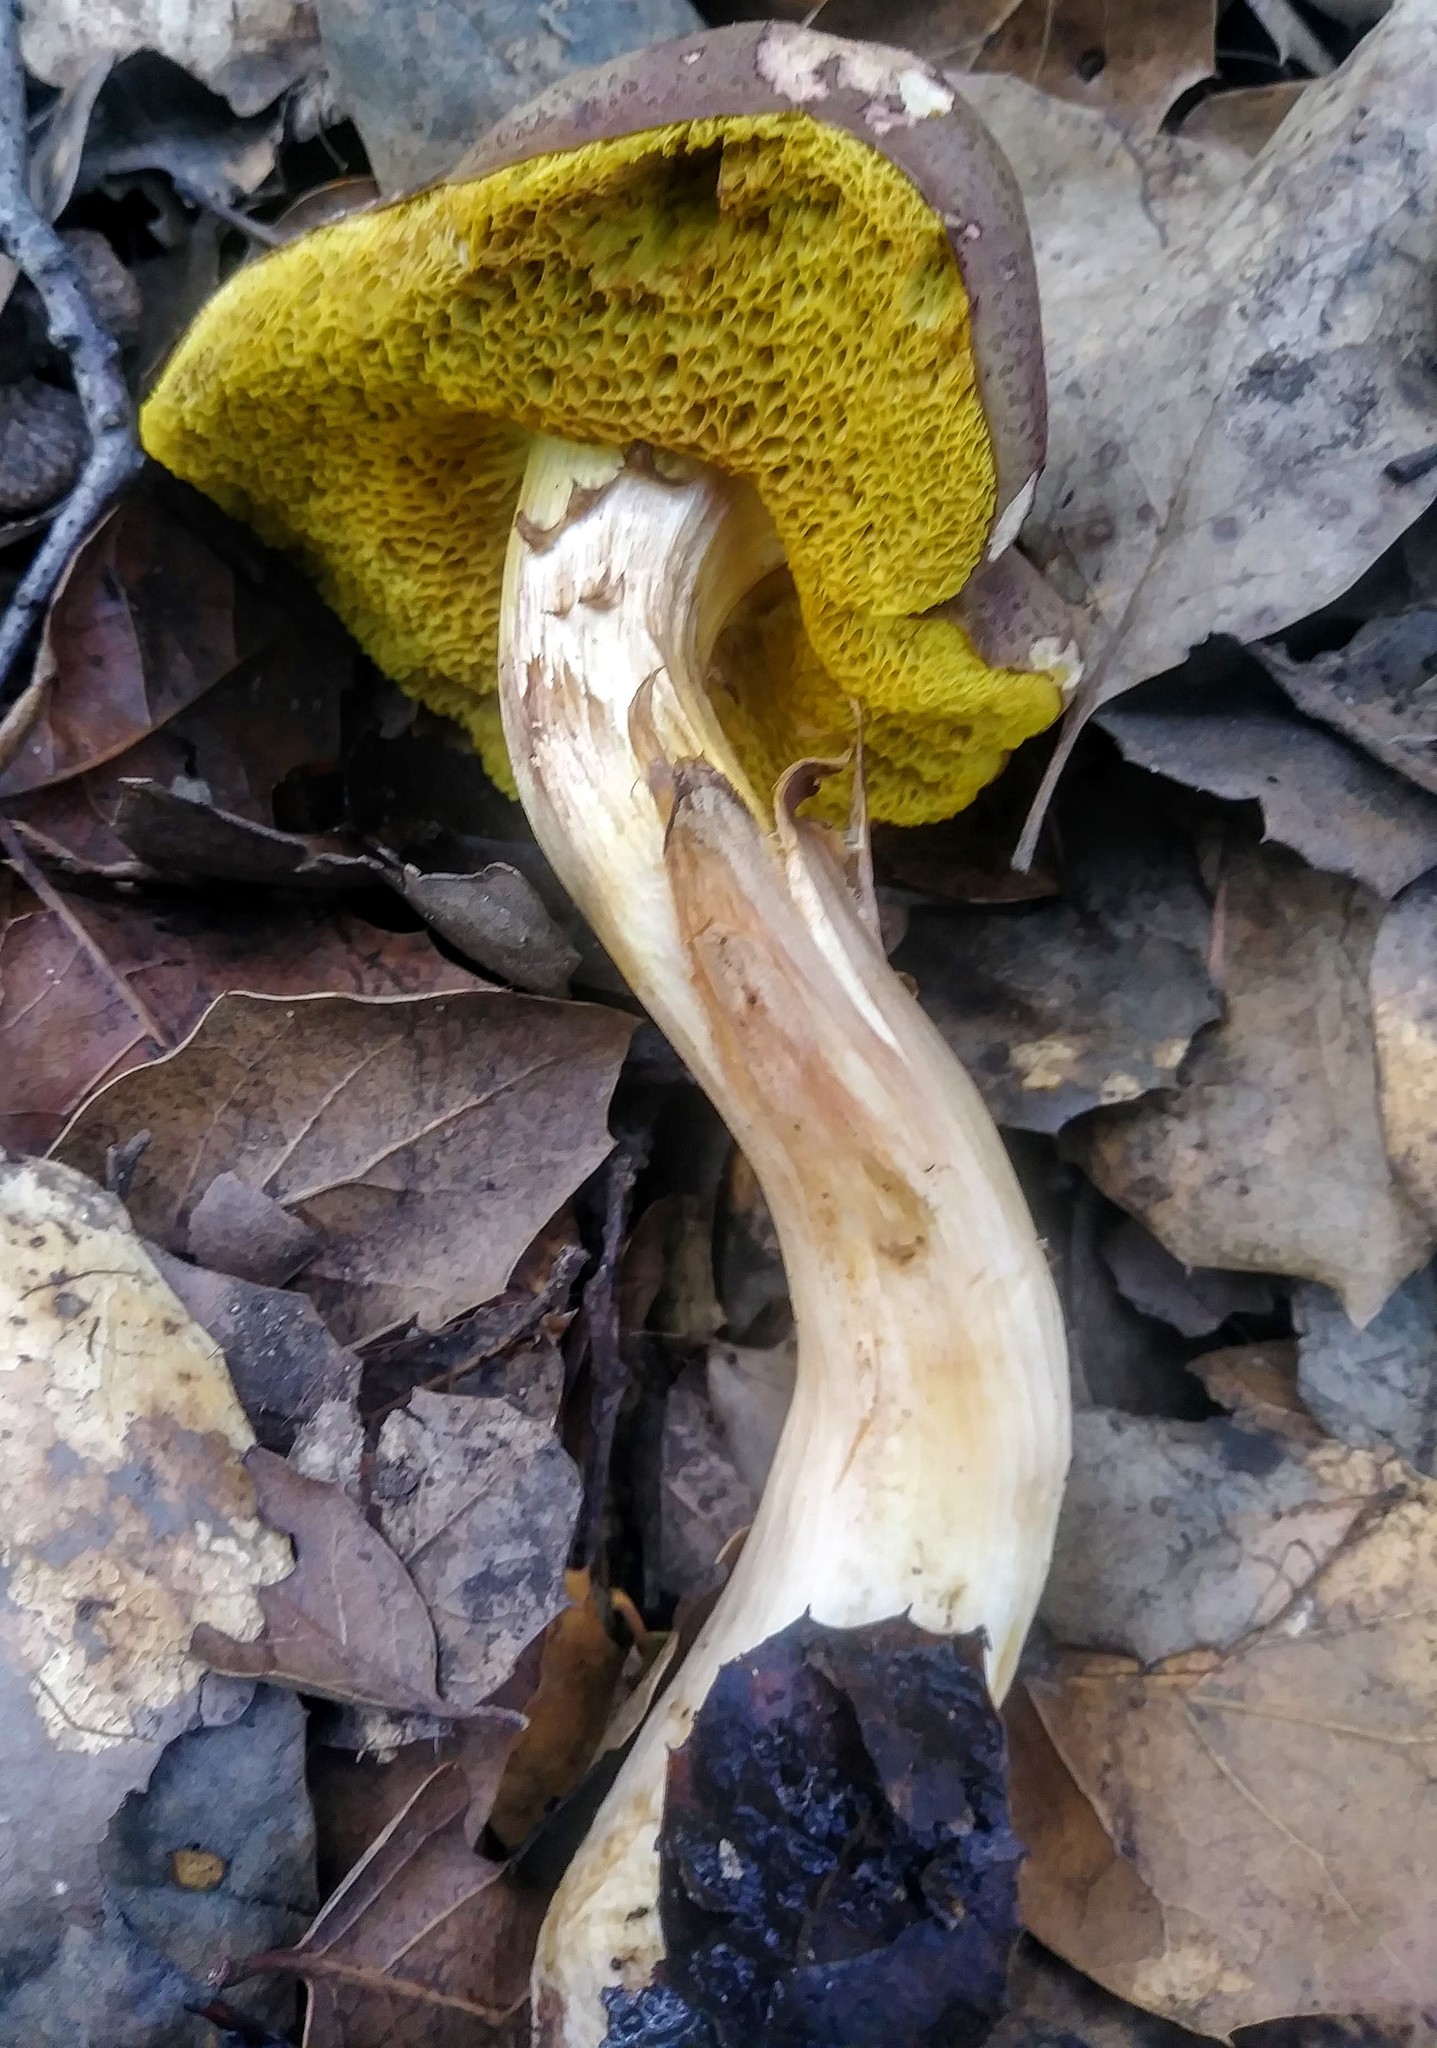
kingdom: Fungi
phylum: Basidiomycota
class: Agaricomycetes
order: Boletales
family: Boletaceae
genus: Xerocomus
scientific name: Xerocomus subtomentosus
